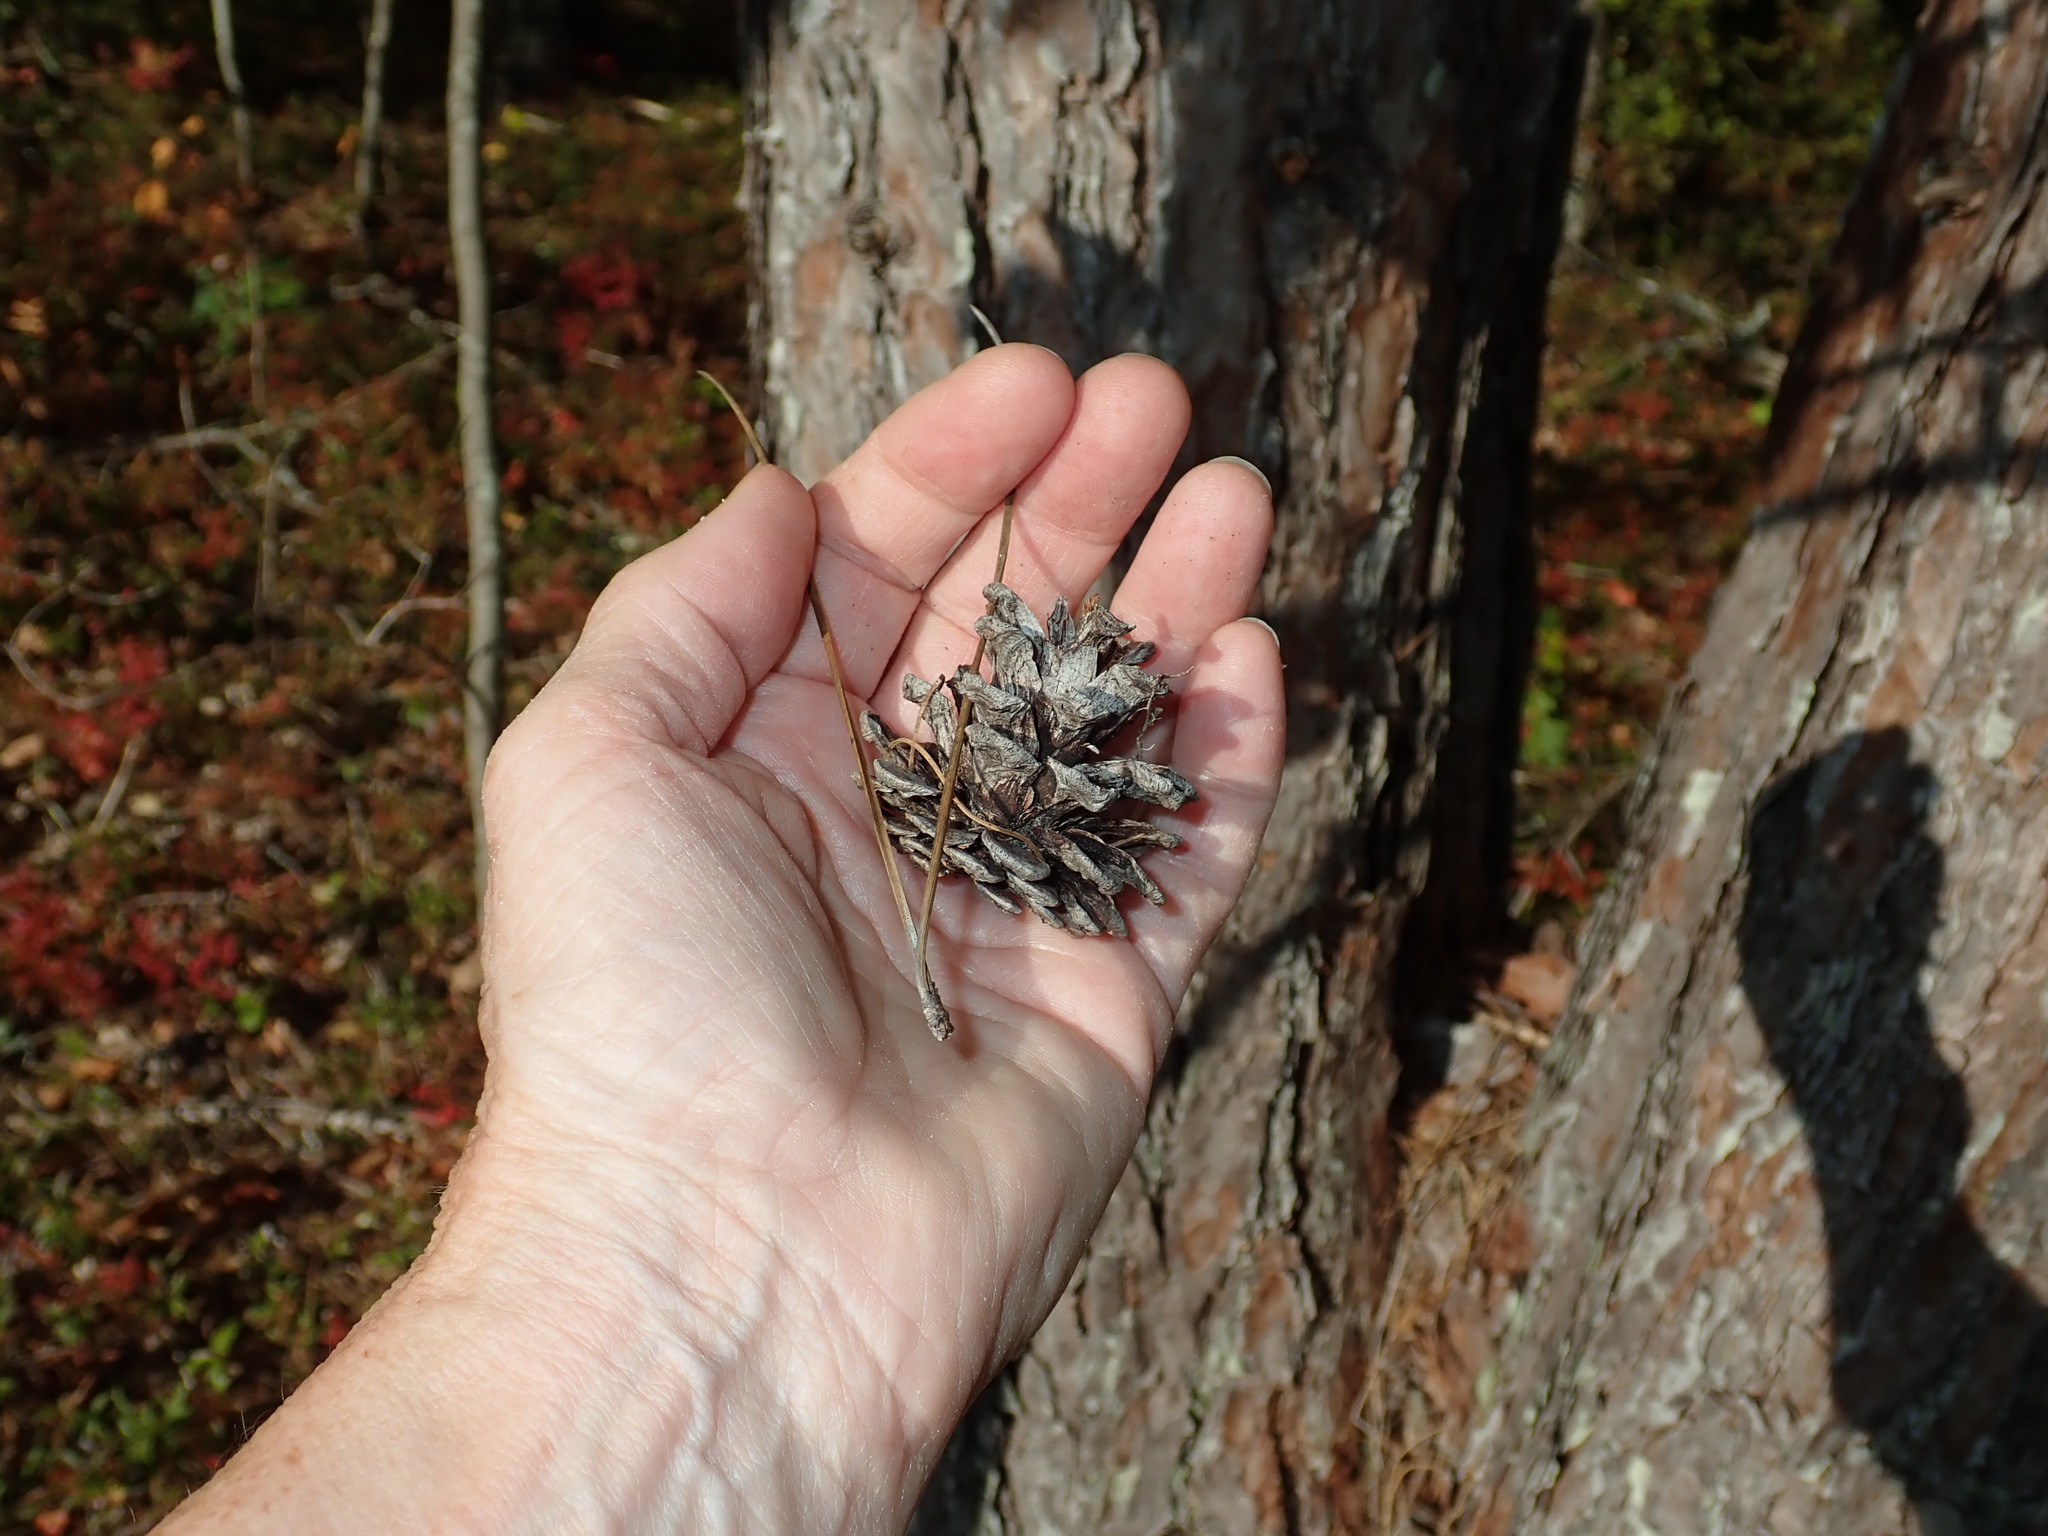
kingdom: Plantae
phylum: Tracheophyta
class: Pinopsida
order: Pinales
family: Pinaceae
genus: Pinus
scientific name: Pinus resinosa
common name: Norway pine
